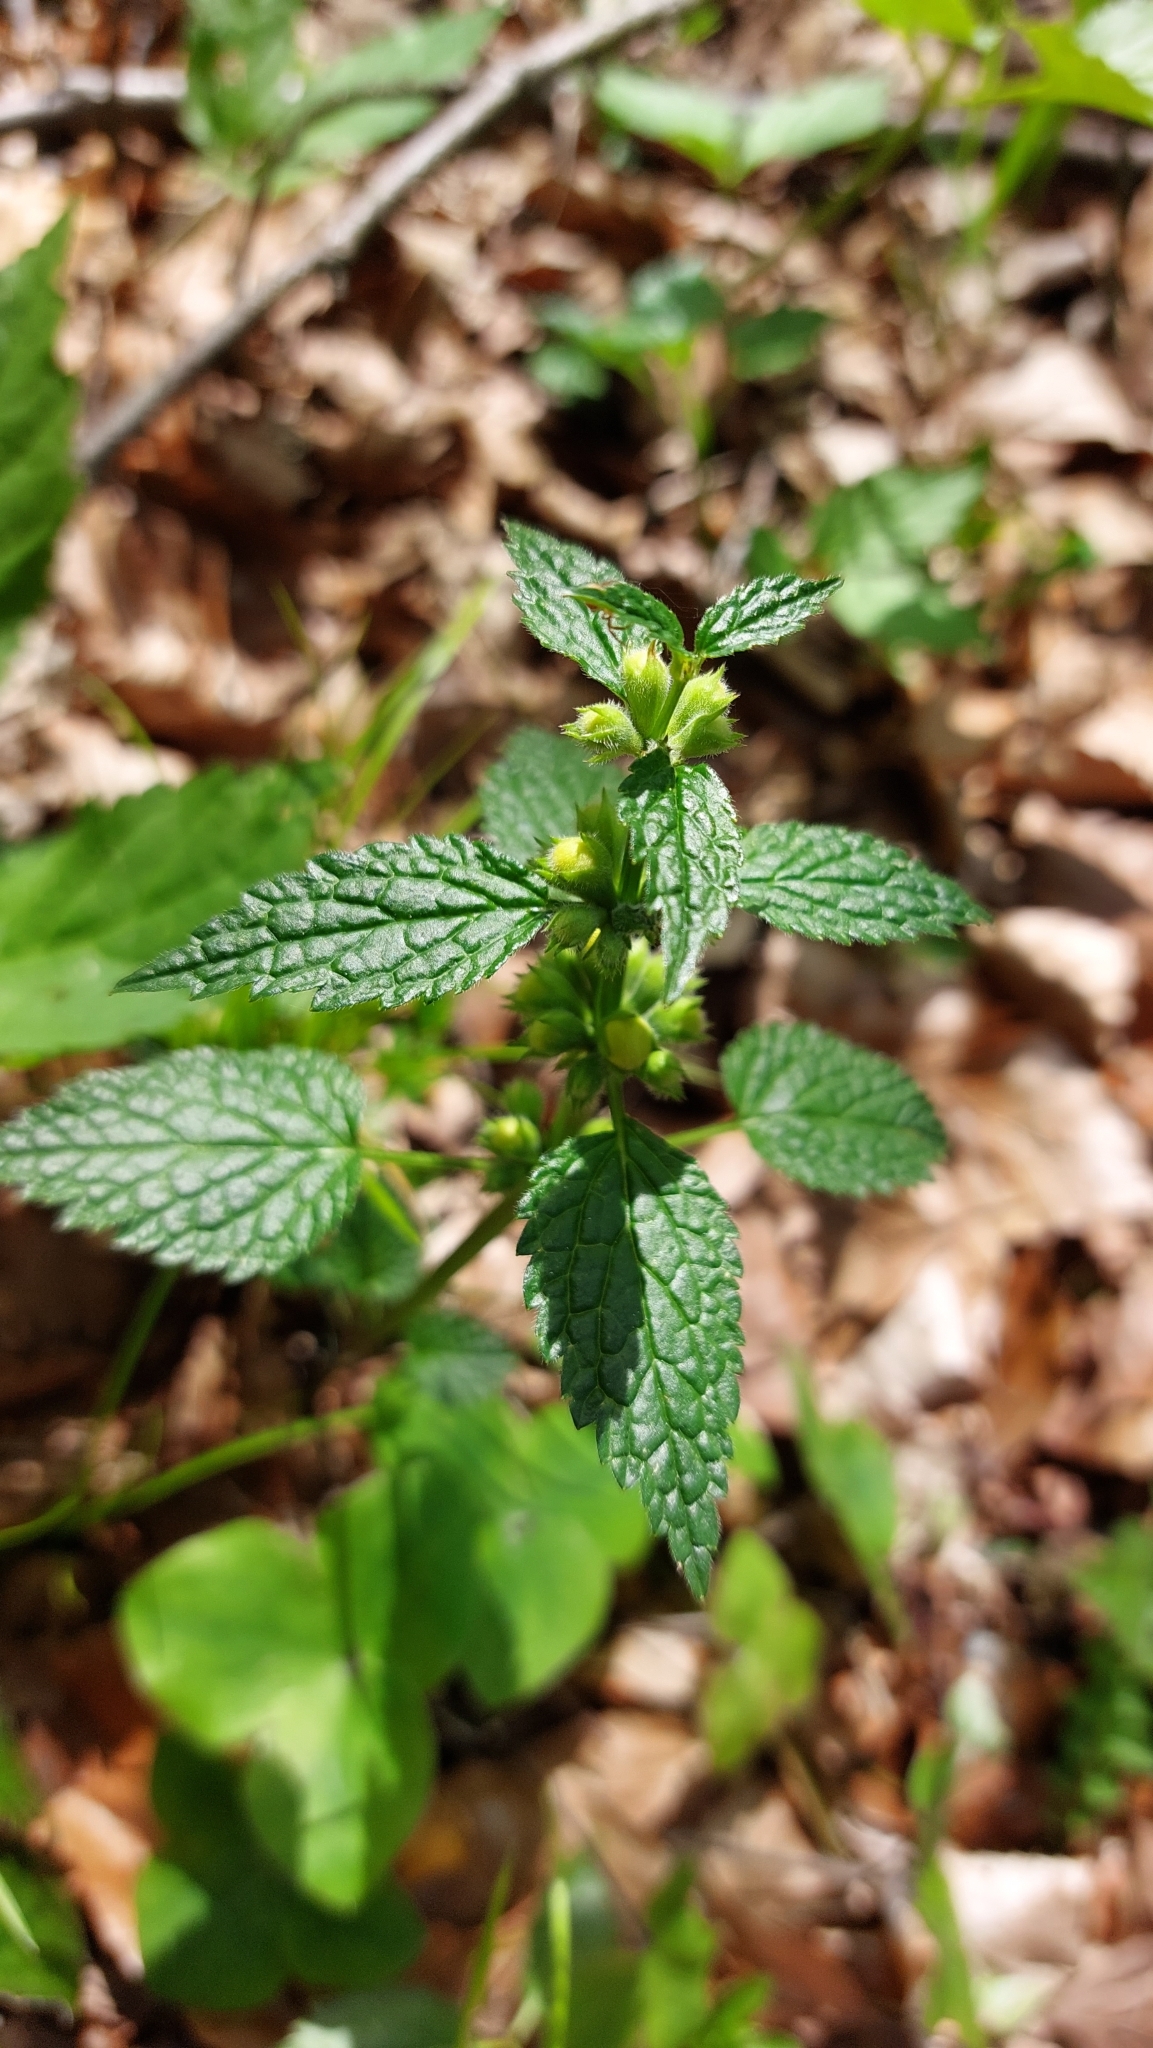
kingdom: Plantae
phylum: Tracheophyta
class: Magnoliopsida
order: Lamiales
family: Lamiaceae
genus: Lamium
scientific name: Lamium galeobdolon
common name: Yellow archangel
